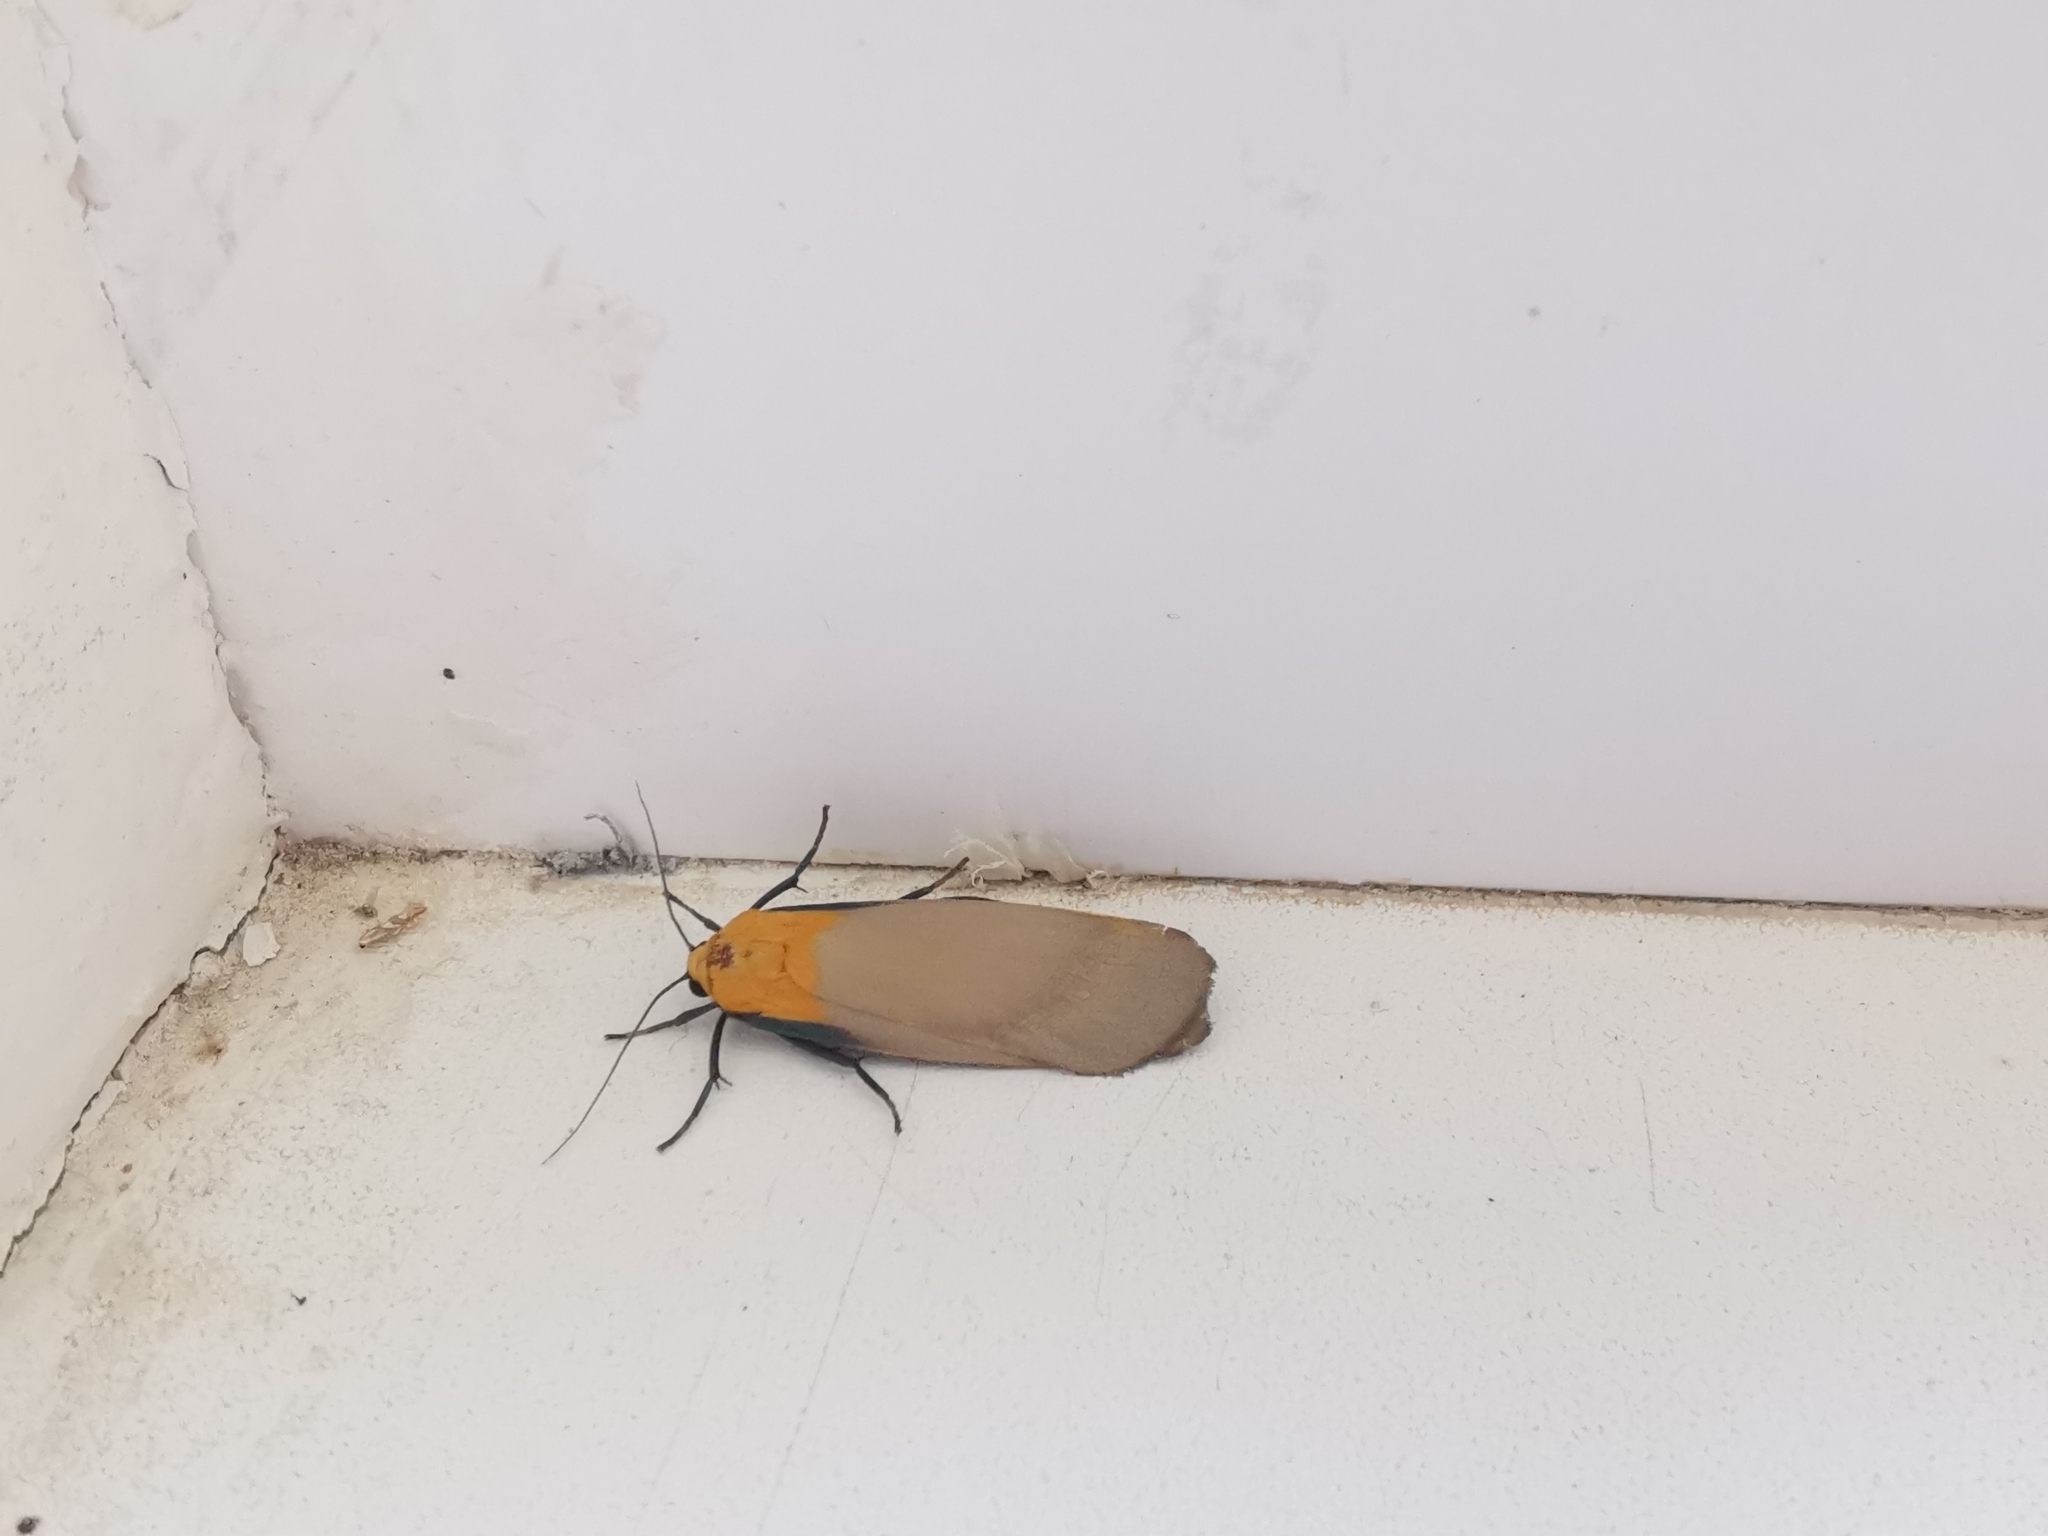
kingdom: Animalia
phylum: Arthropoda
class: Insecta
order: Lepidoptera
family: Erebidae
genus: Lithosia
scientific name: Lithosia quadra
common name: Four-spotted footman
